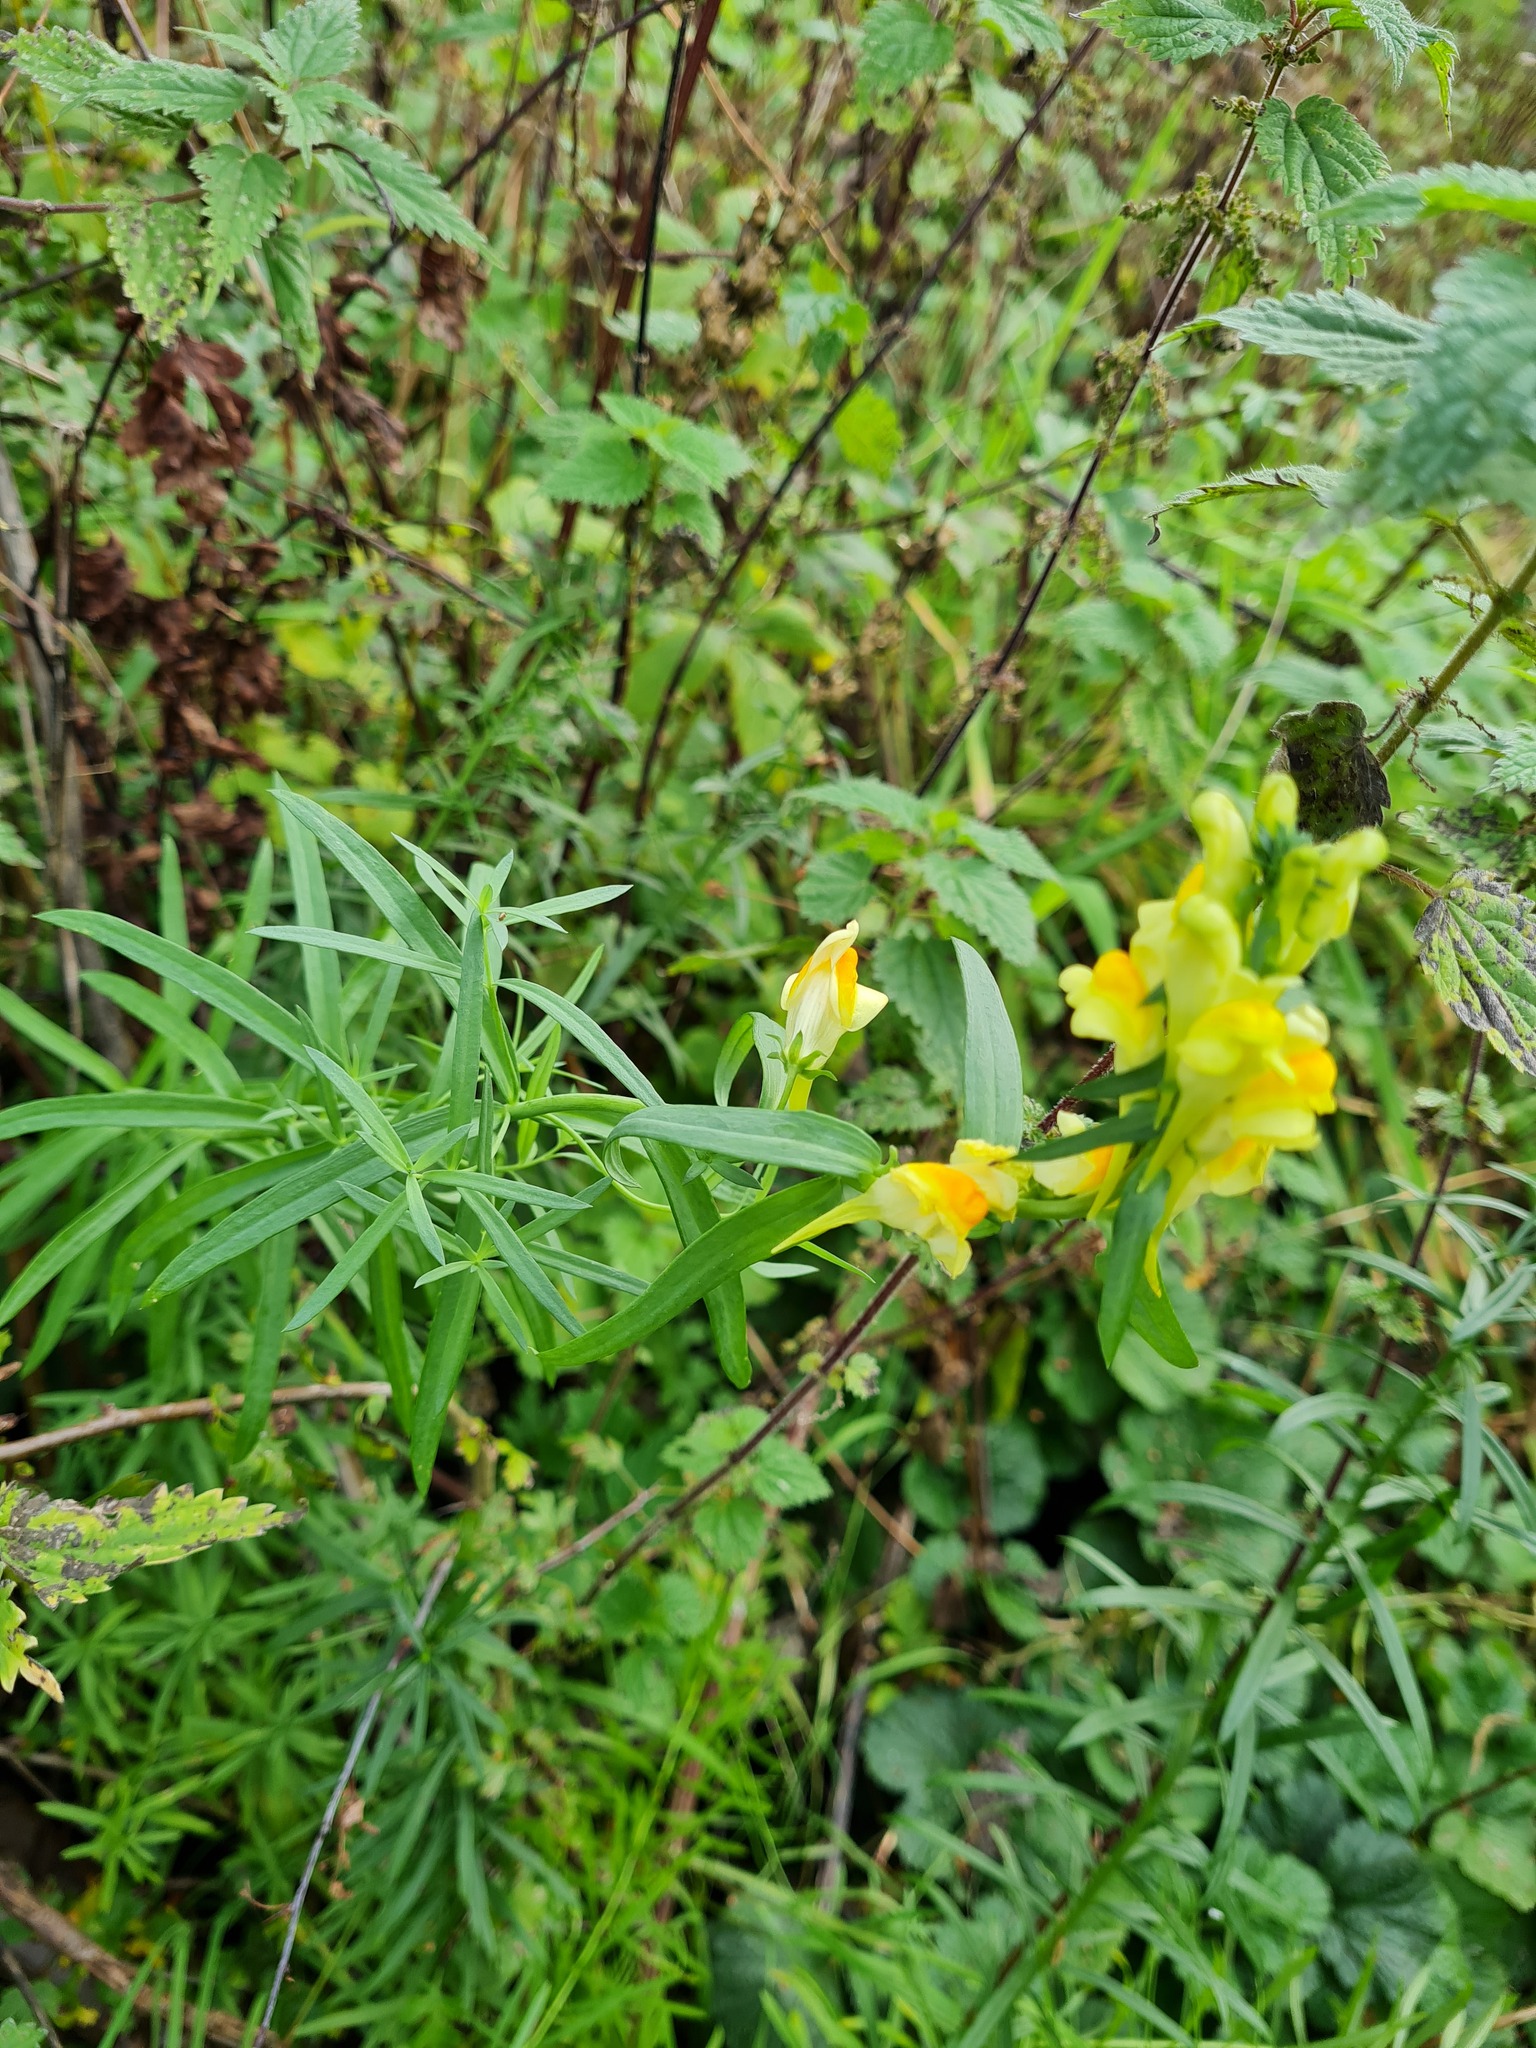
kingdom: Plantae
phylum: Tracheophyta
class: Magnoliopsida
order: Lamiales
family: Plantaginaceae
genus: Linaria
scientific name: Linaria vulgaris
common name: Butter and eggs
